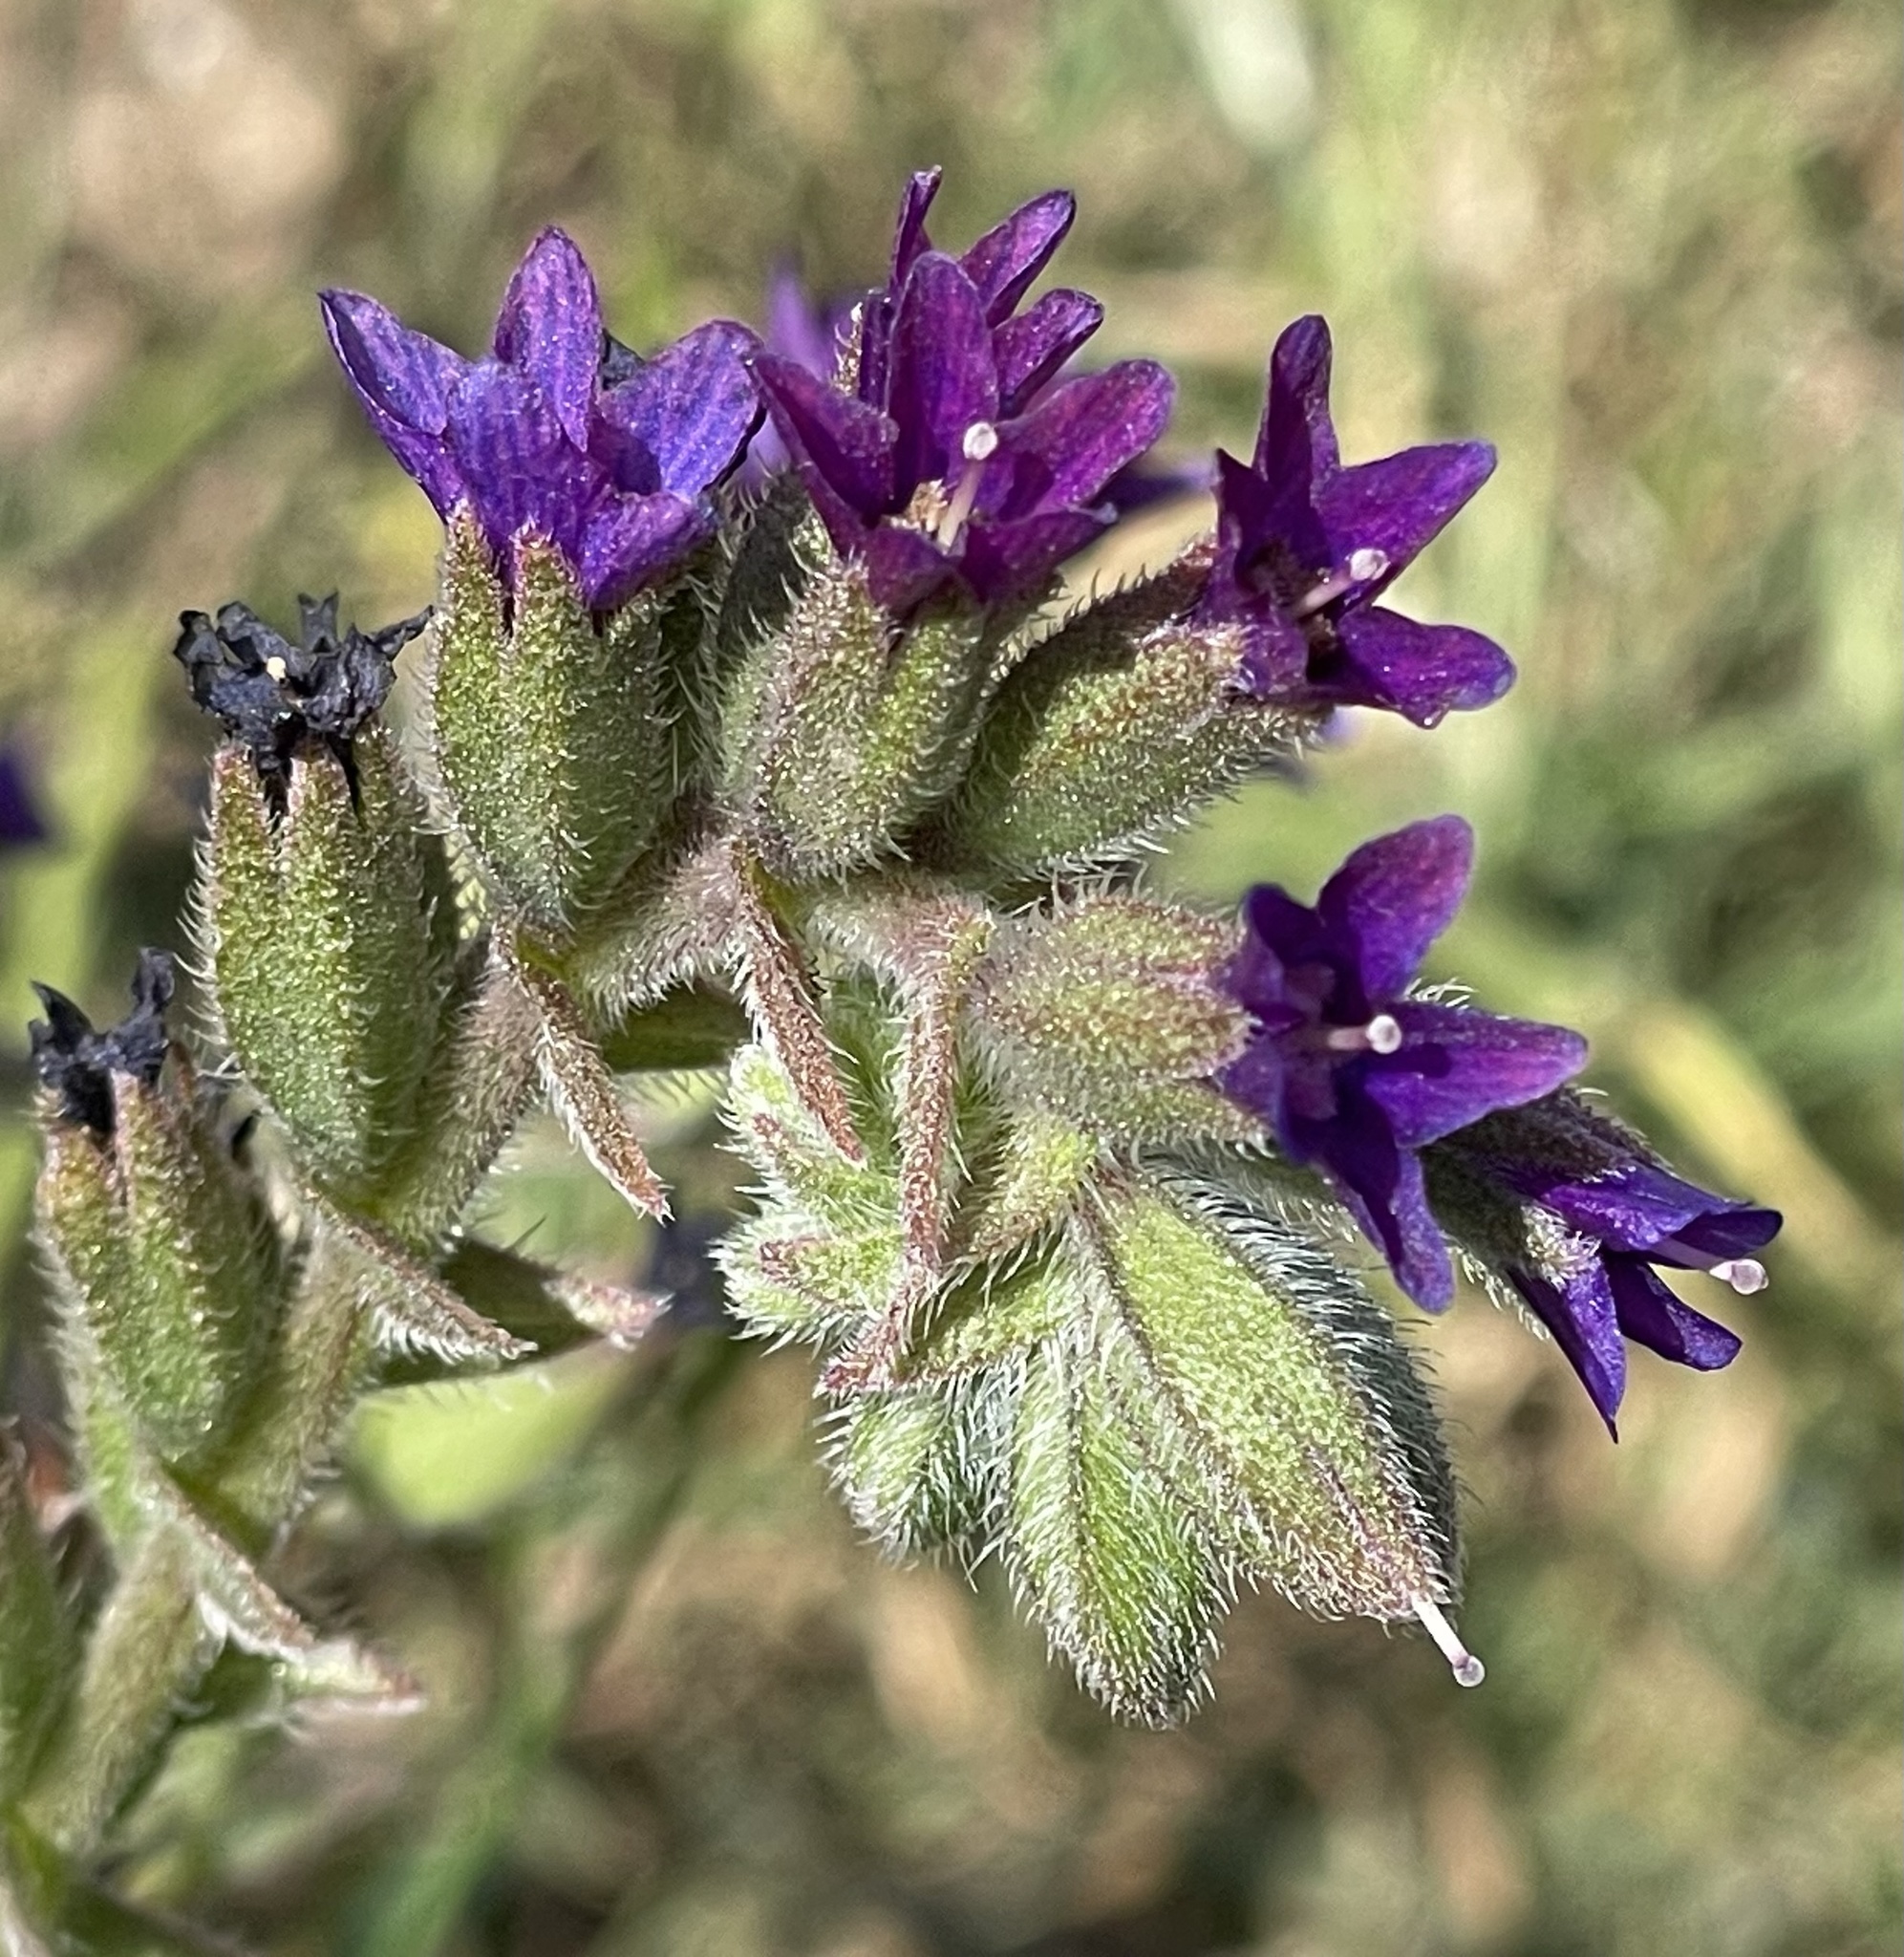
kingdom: Plantae
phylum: Tracheophyta
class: Magnoliopsida
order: Boraginales
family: Boraginaceae
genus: Anchusa
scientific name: Anchusa undulata
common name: Undulate alkanet
